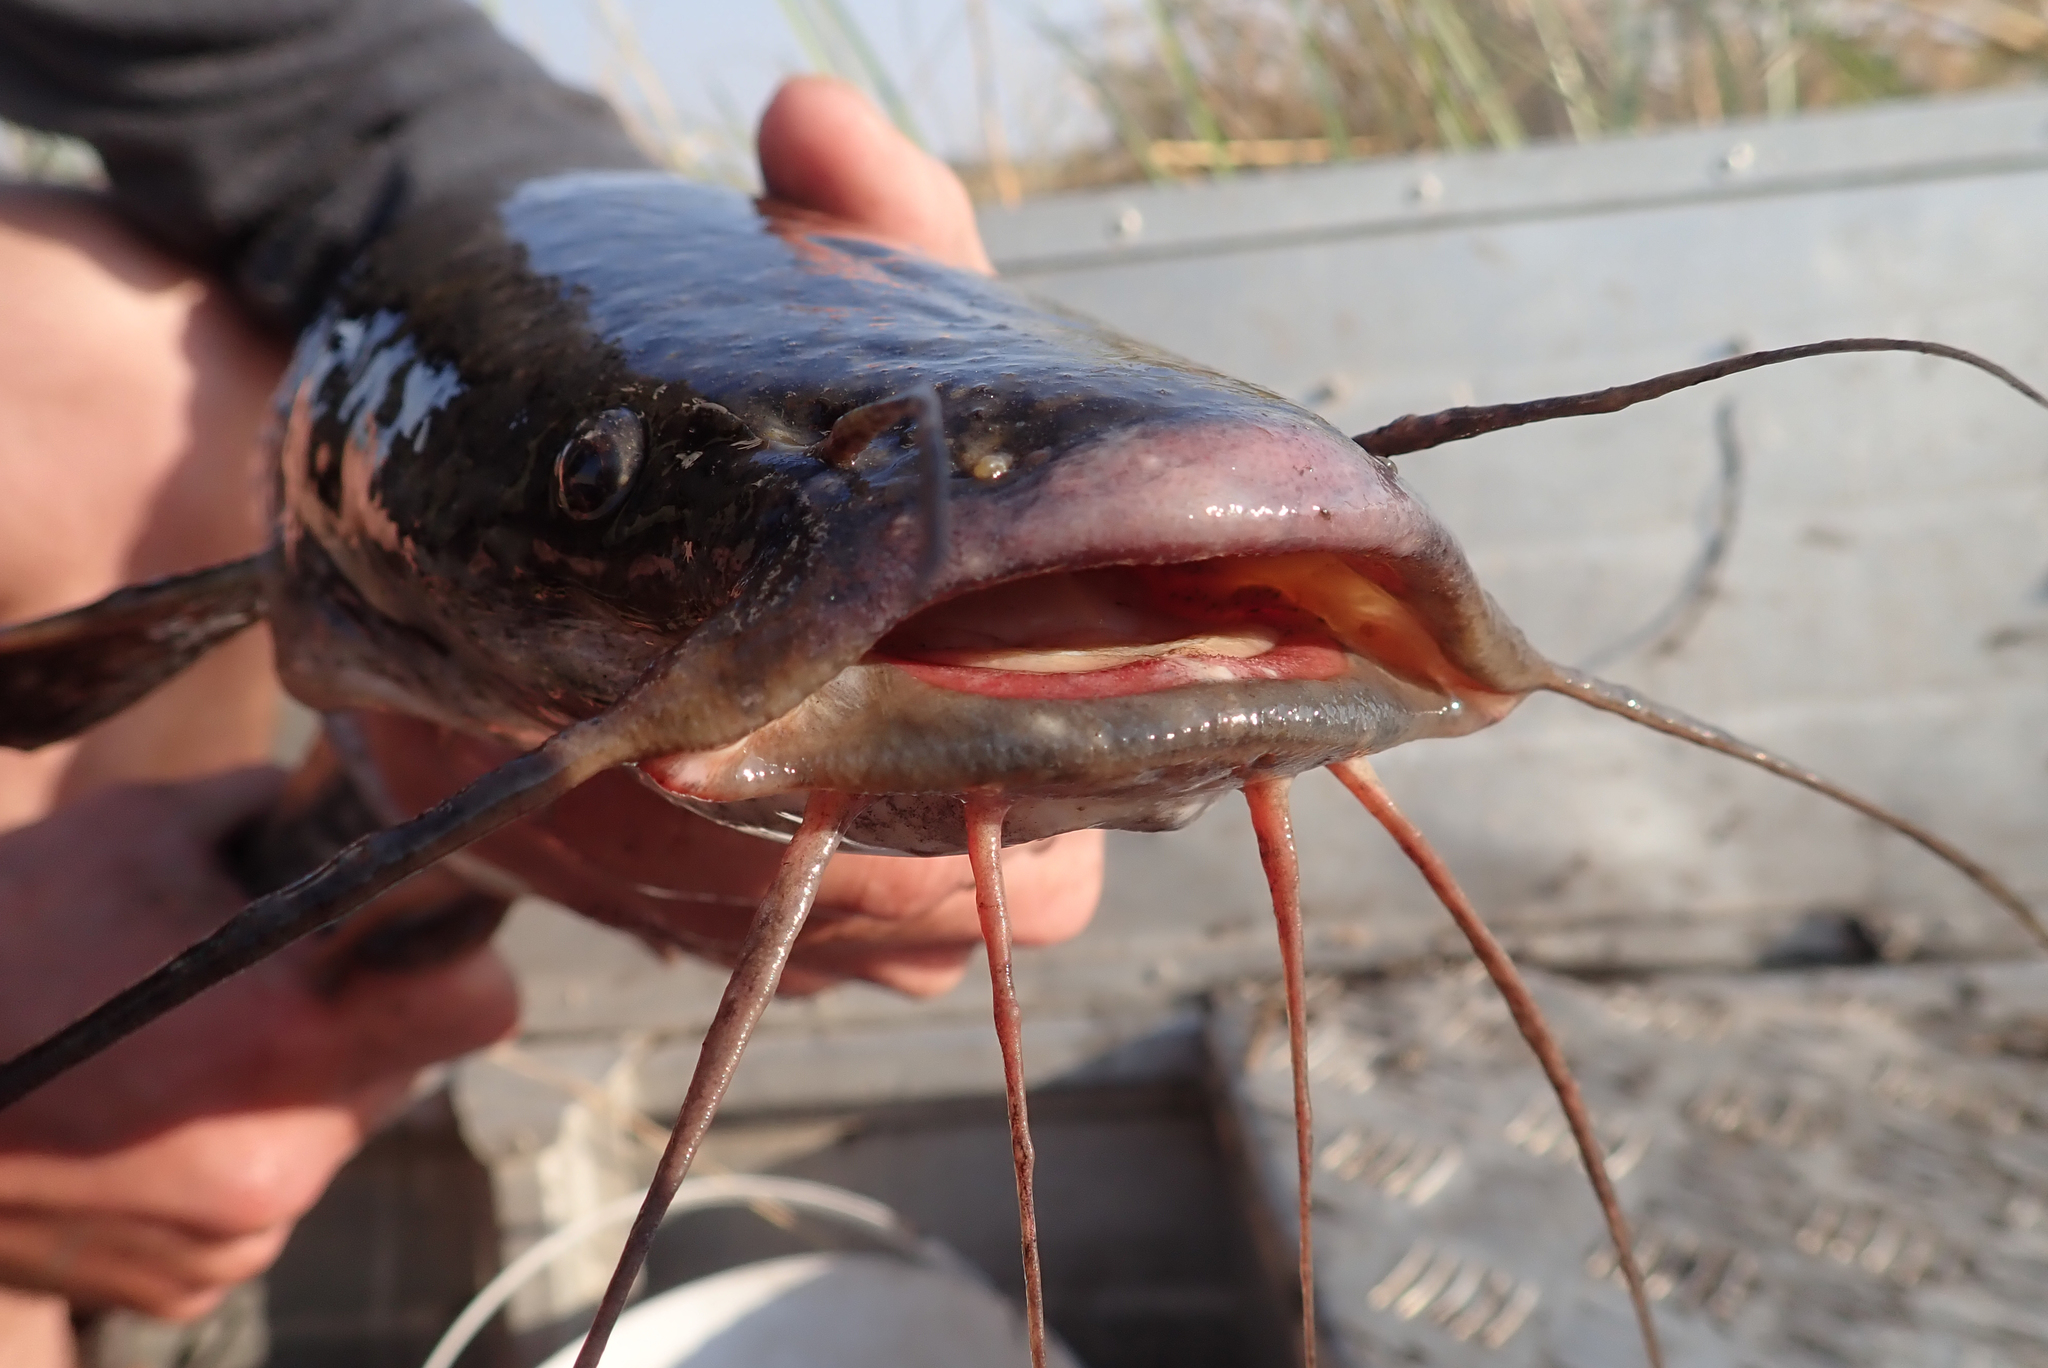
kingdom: Animalia
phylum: Chordata
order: Siluriformes
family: Clariidae
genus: Clarias
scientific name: Clarias gariepinus
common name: African catfish
